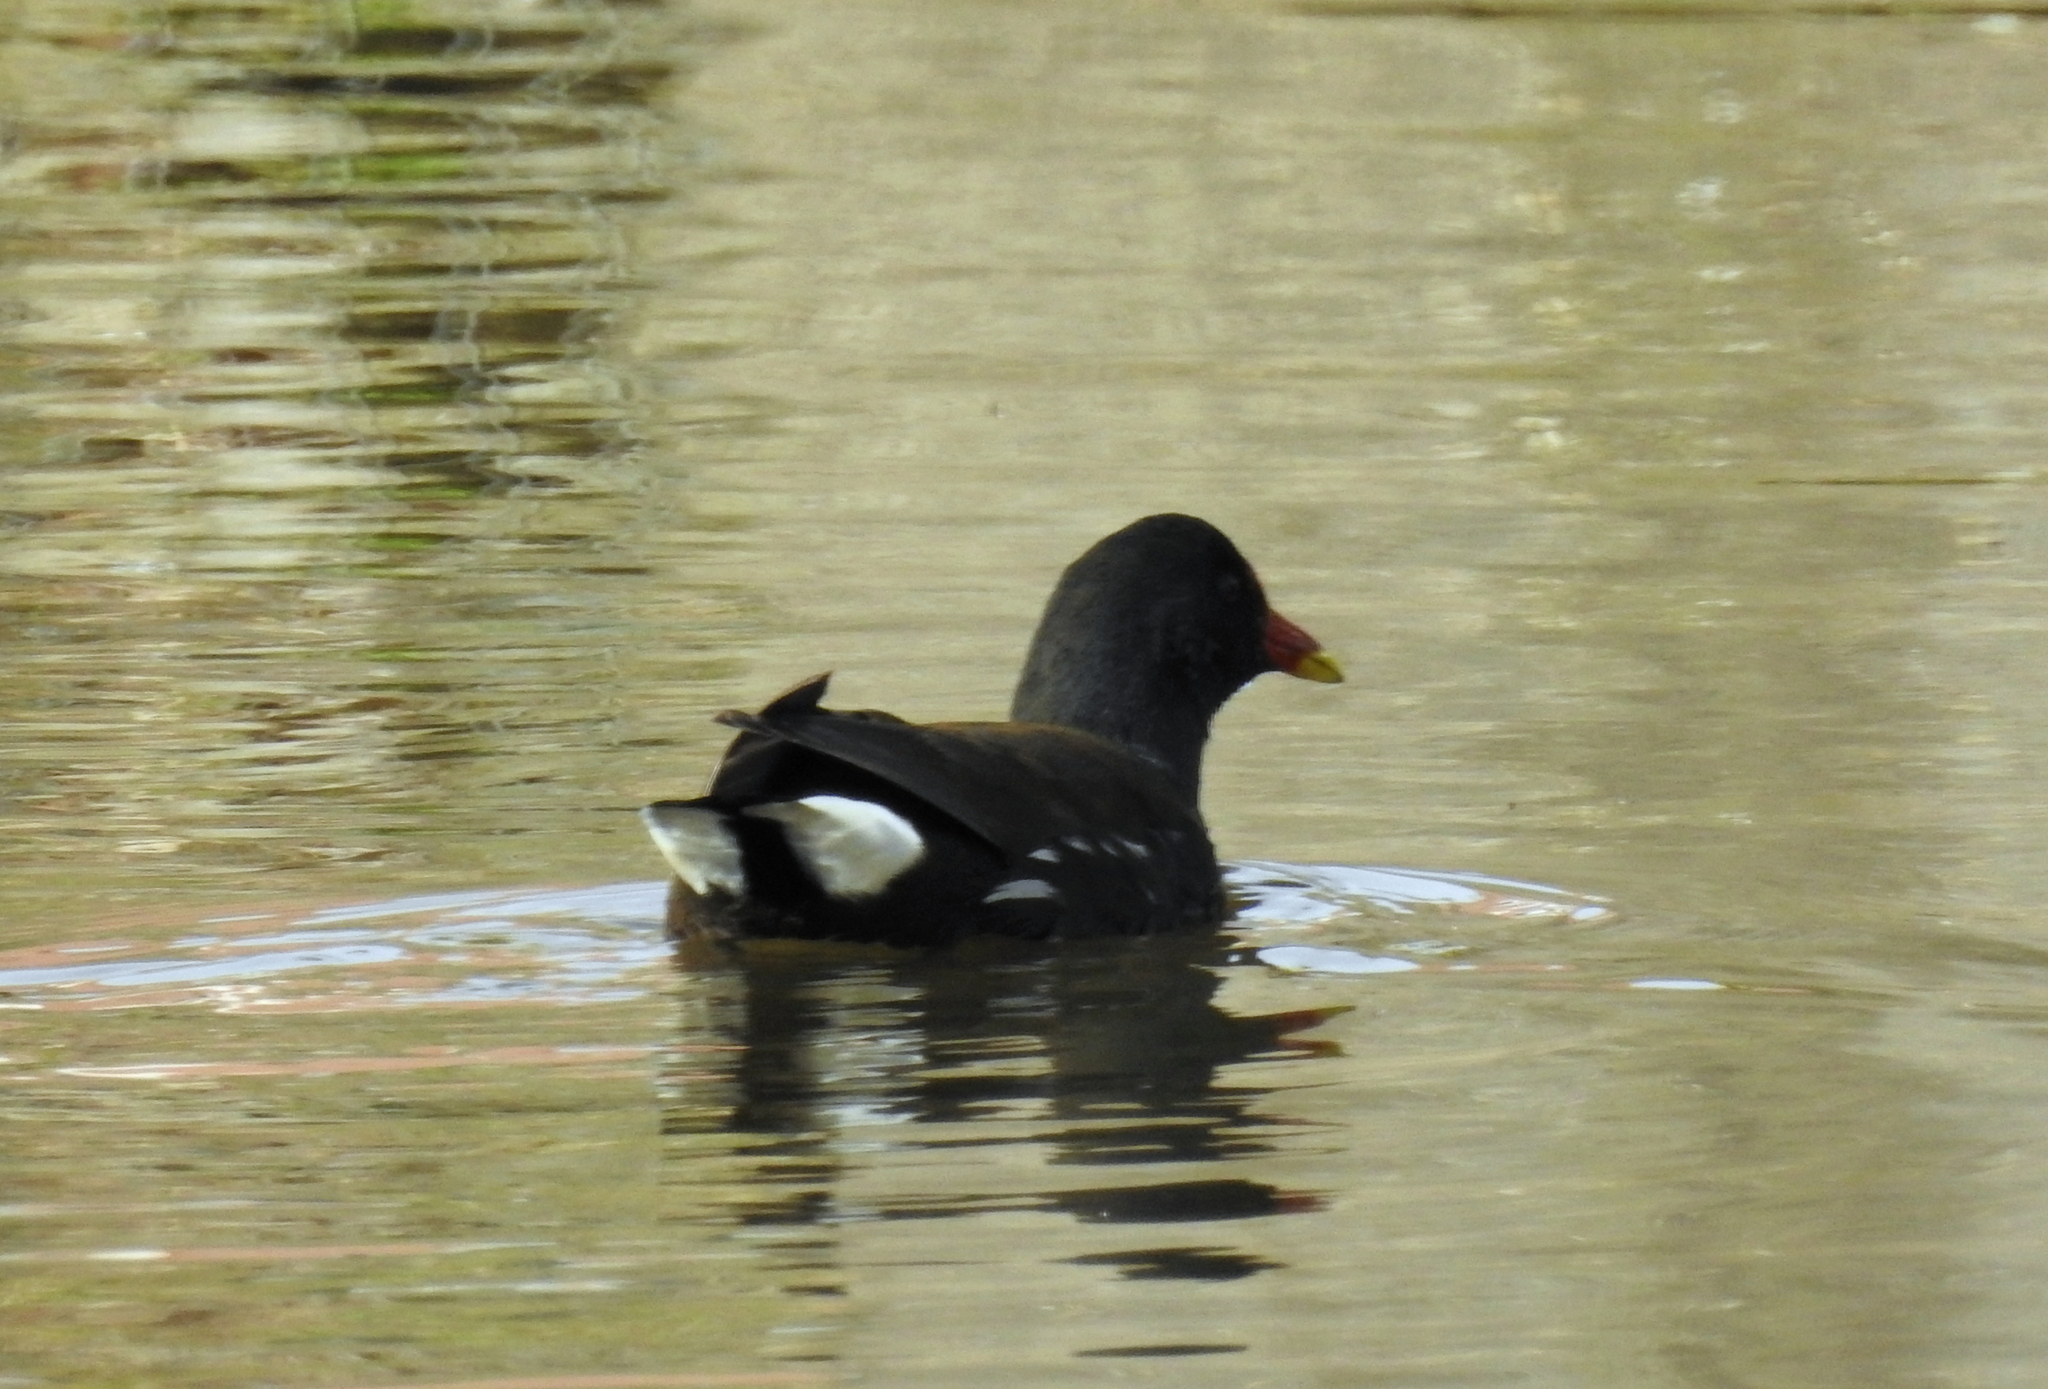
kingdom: Animalia
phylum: Chordata
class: Aves
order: Gruiformes
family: Rallidae
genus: Gallinula
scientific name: Gallinula chloropus
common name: Common moorhen
